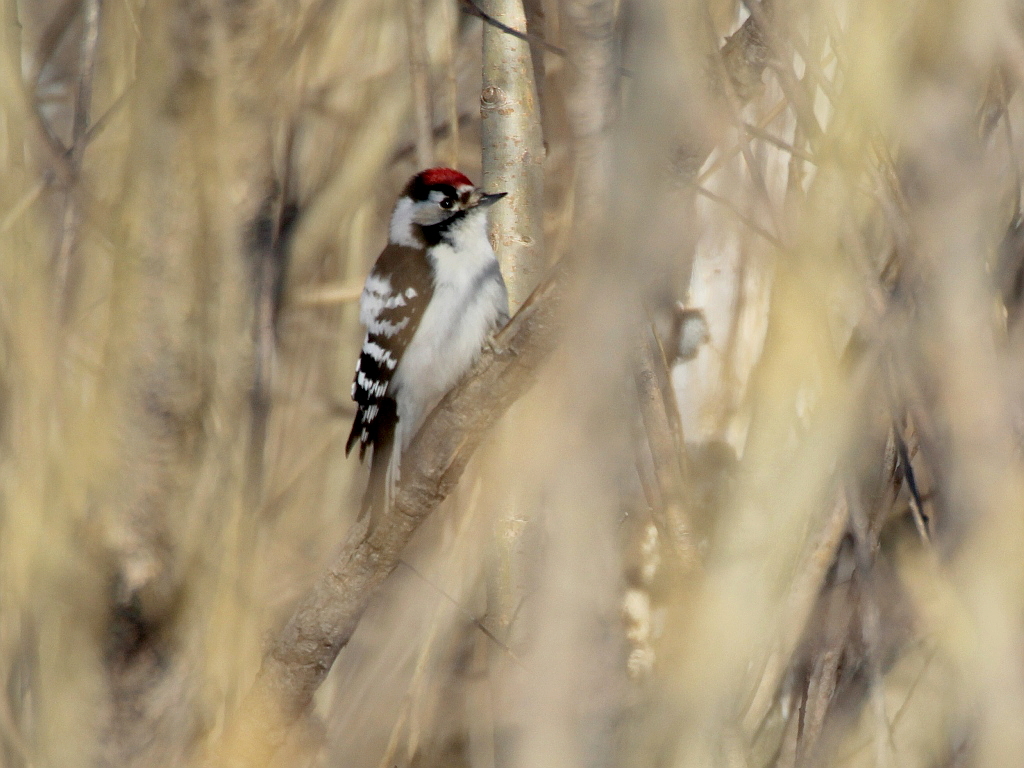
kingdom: Animalia
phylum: Chordata
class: Aves
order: Piciformes
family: Picidae
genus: Dryobates
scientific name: Dryobates minor
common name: Lesser spotted woodpecker
